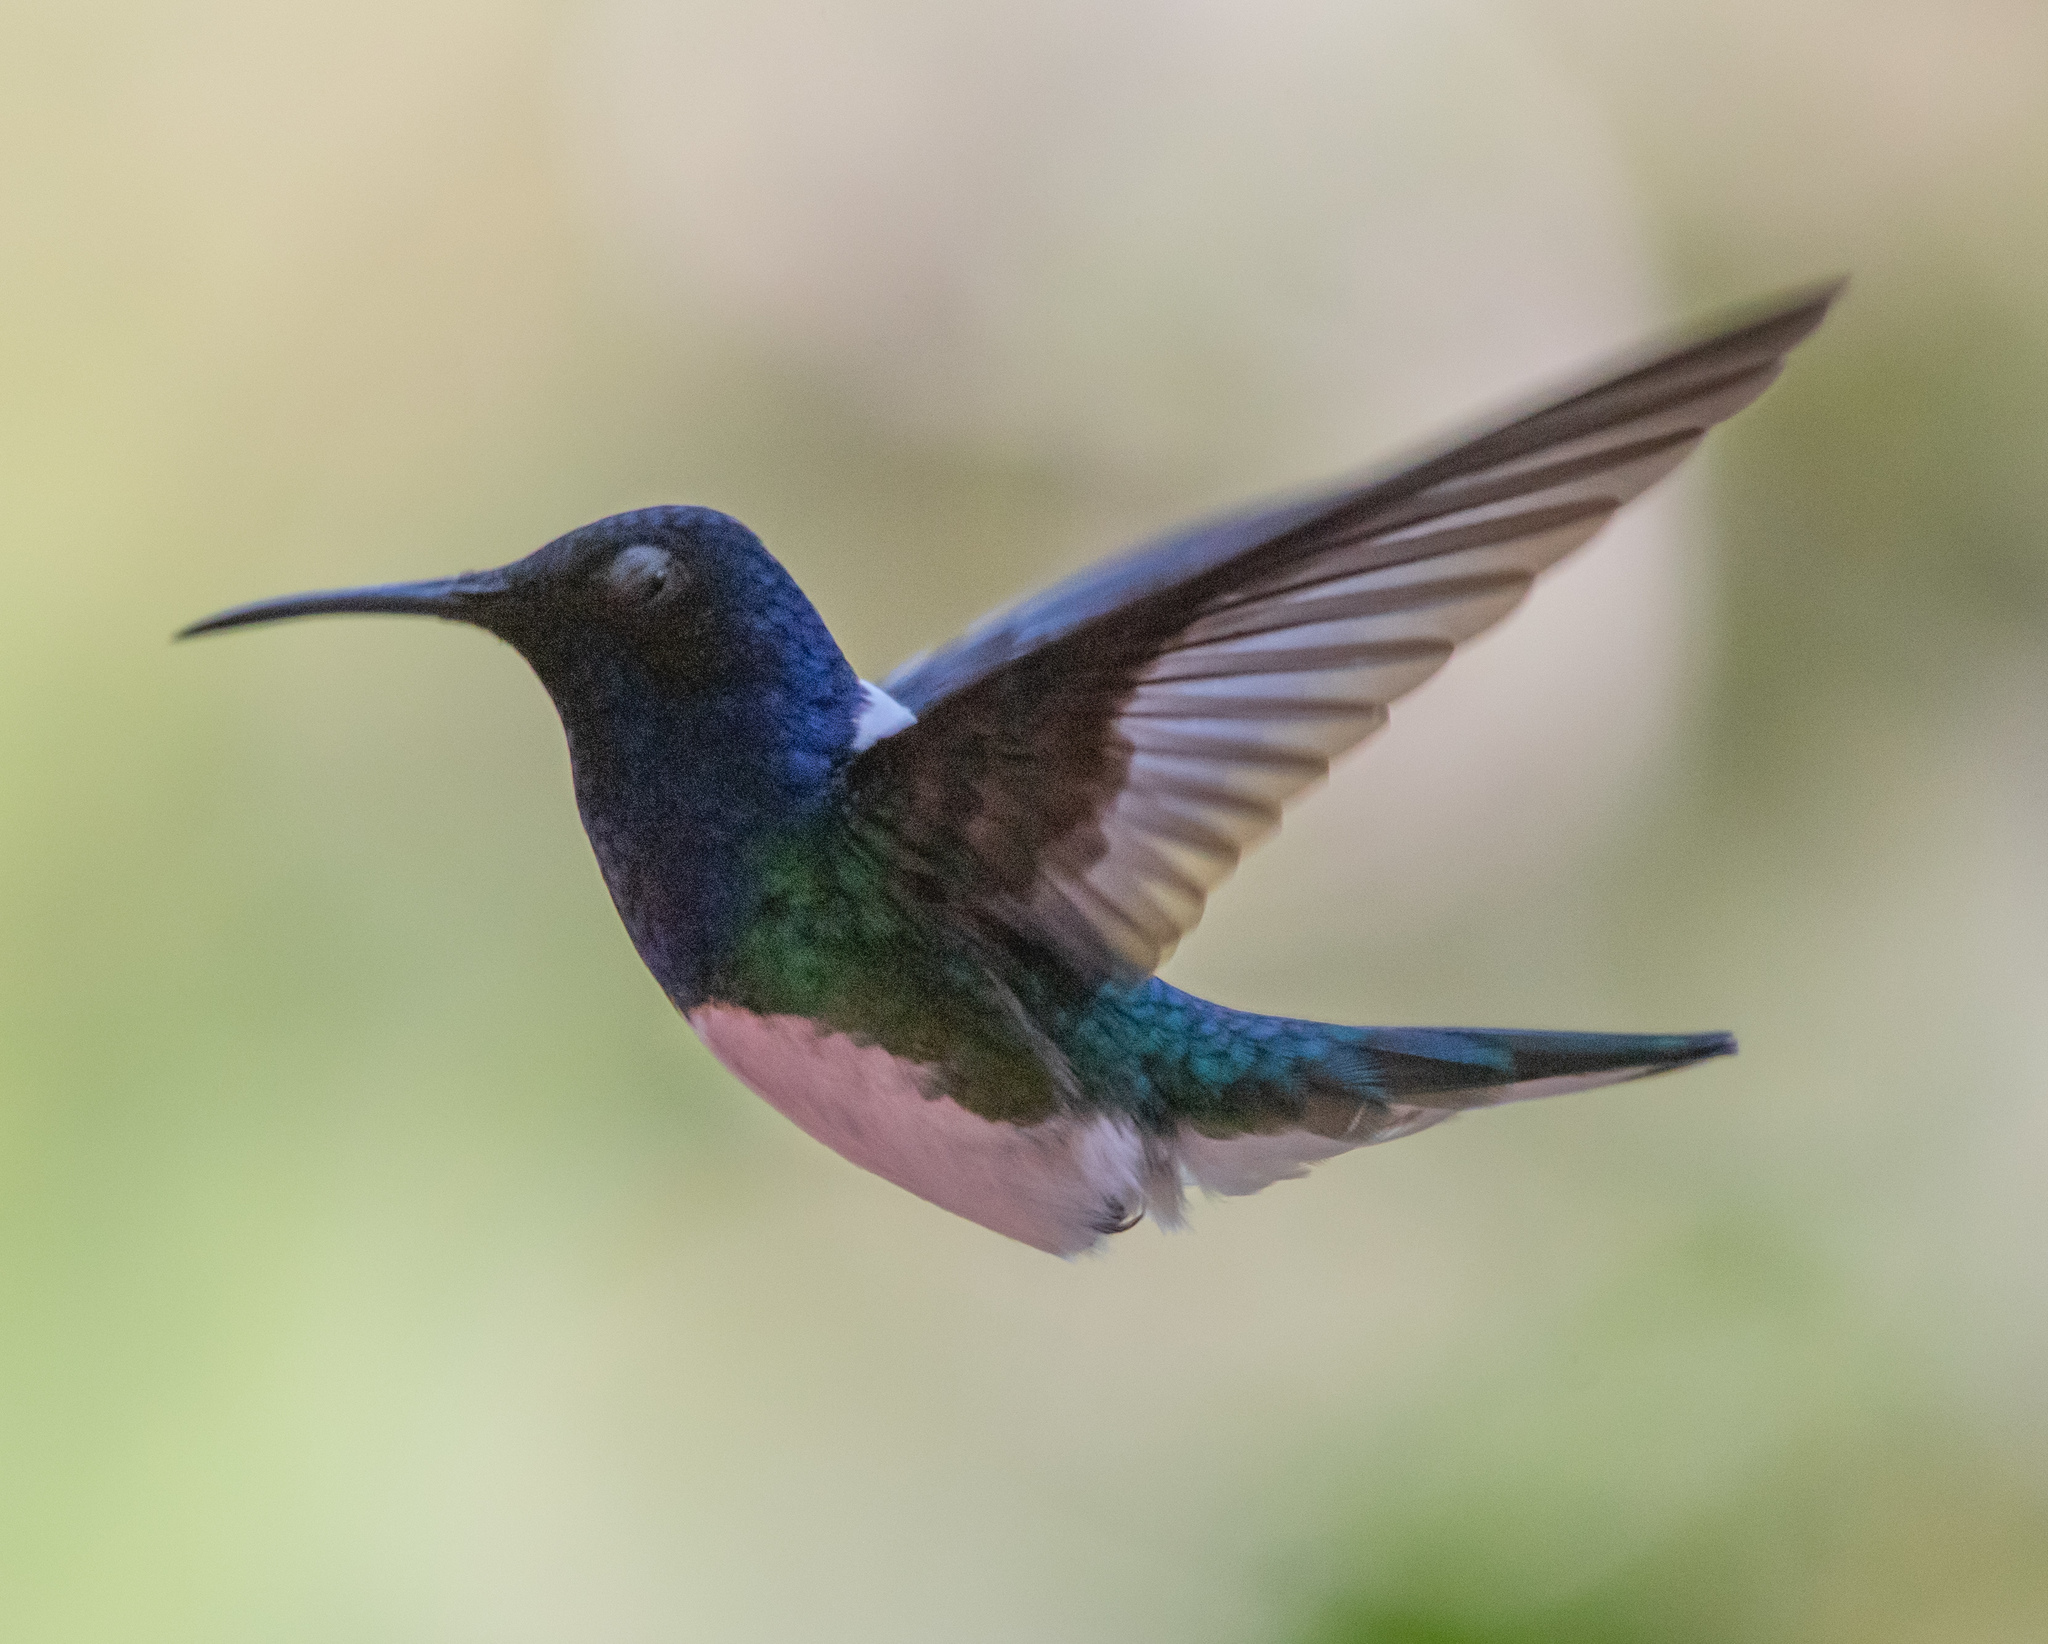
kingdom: Animalia
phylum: Chordata
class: Aves
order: Apodiformes
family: Trochilidae
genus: Florisuga
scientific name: Florisuga mellivora
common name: White-necked jacobin
